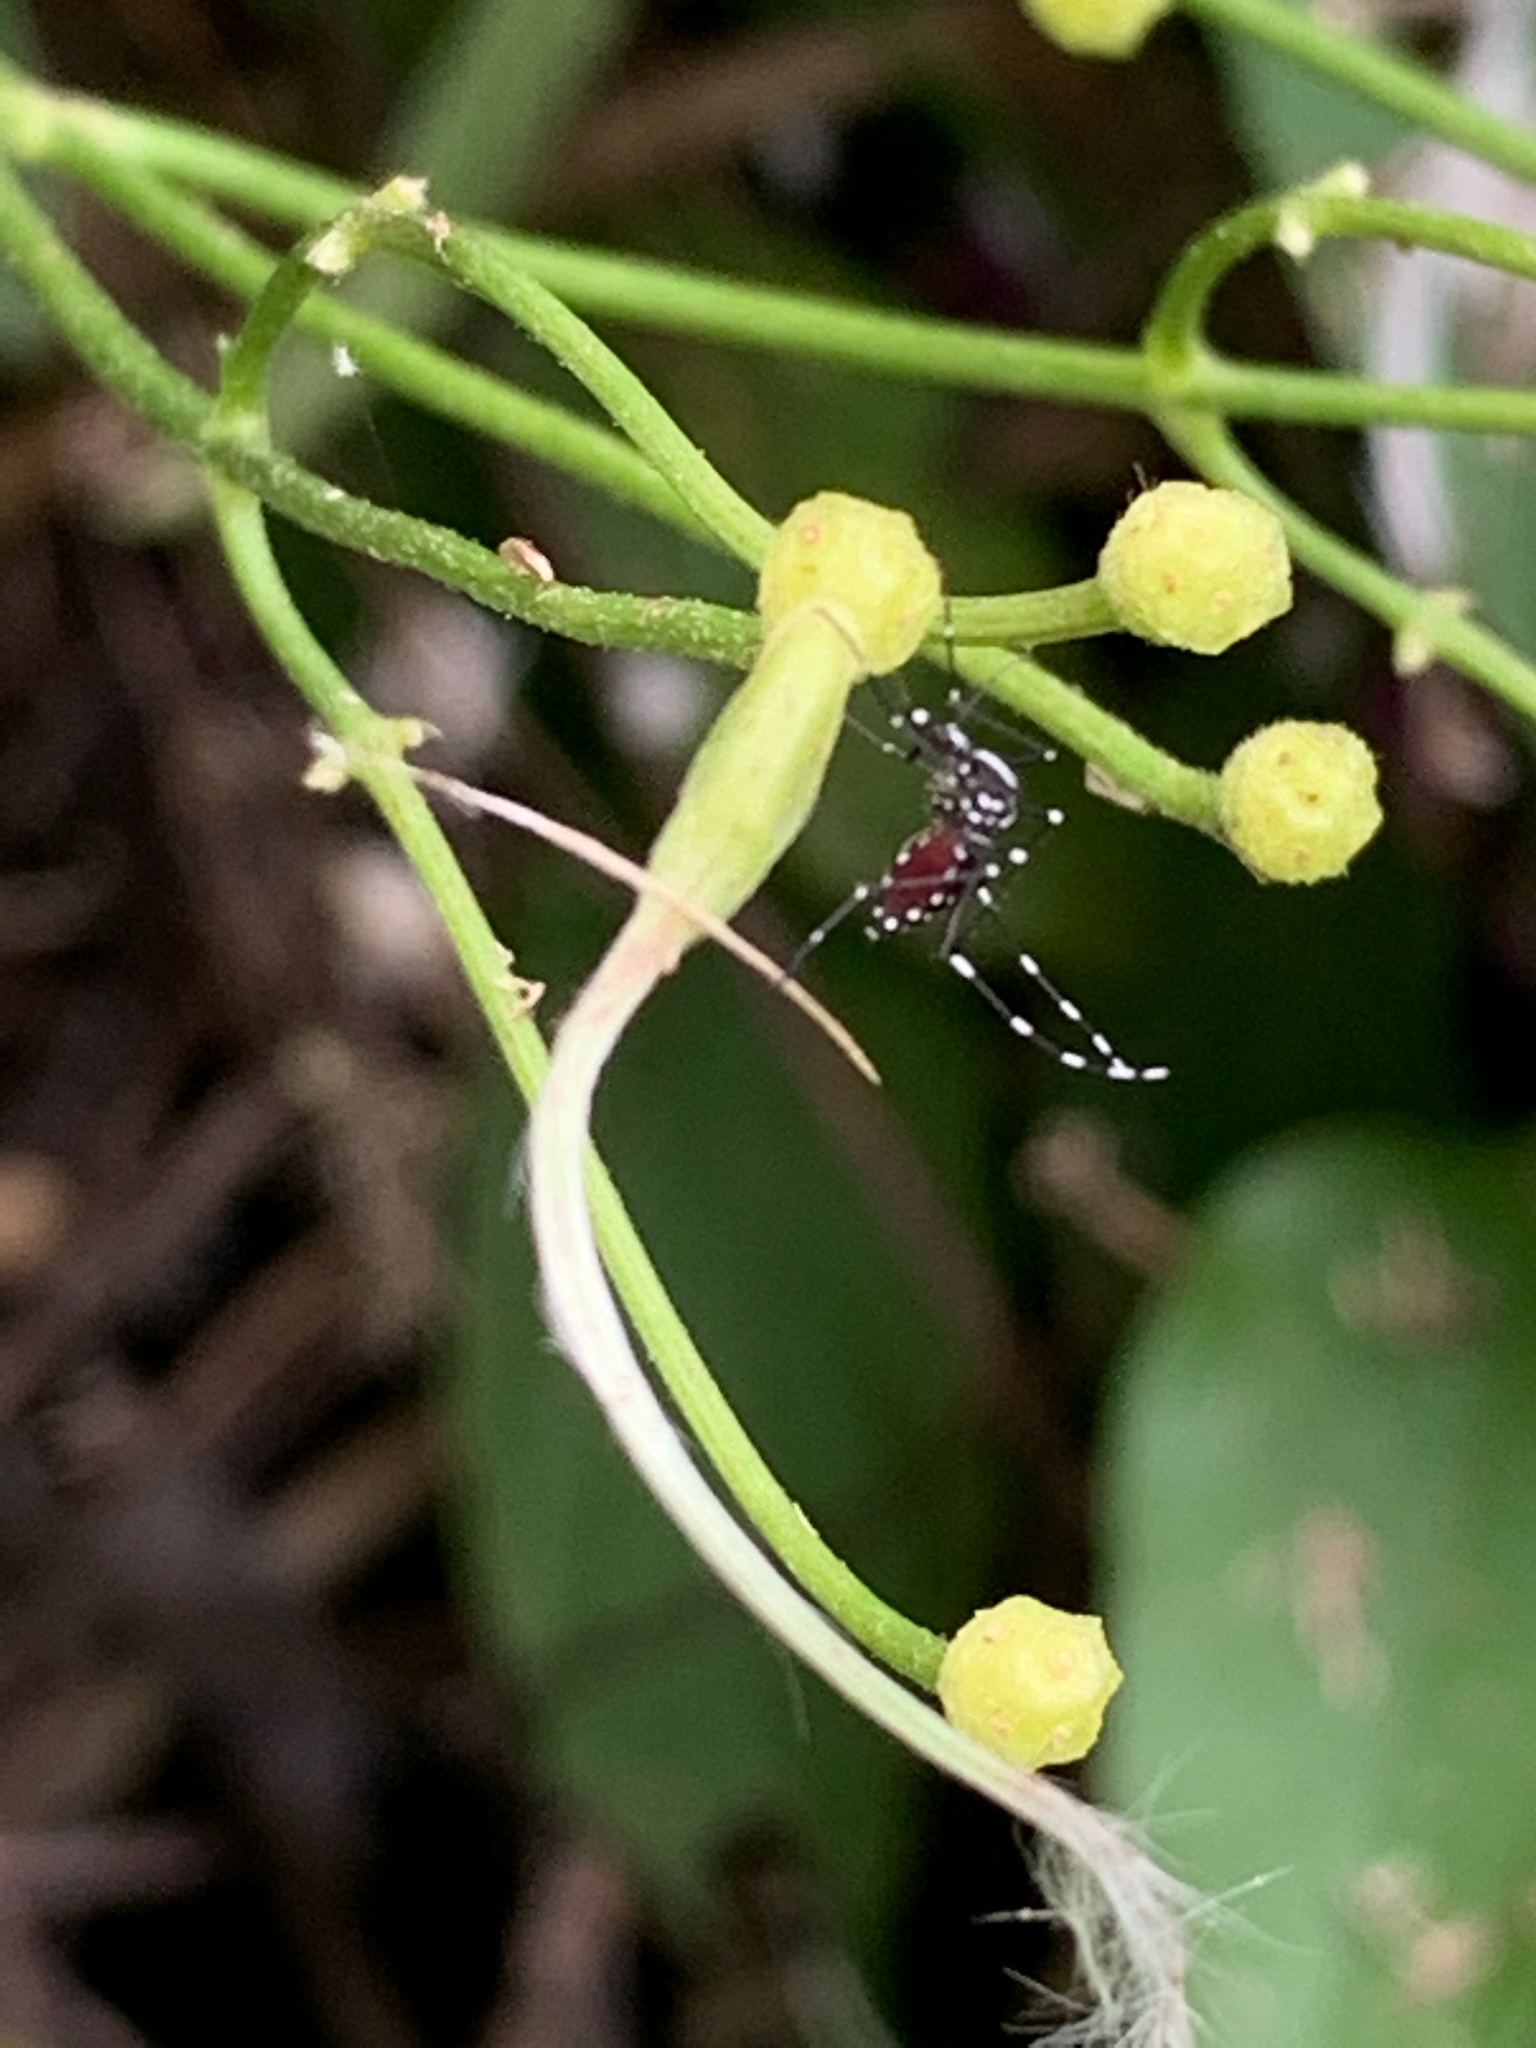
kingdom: Animalia
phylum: Arthropoda
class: Insecta
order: Diptera
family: Culicidae
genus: Aedes
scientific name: Aedes albopictus
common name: Tiger mosquito
